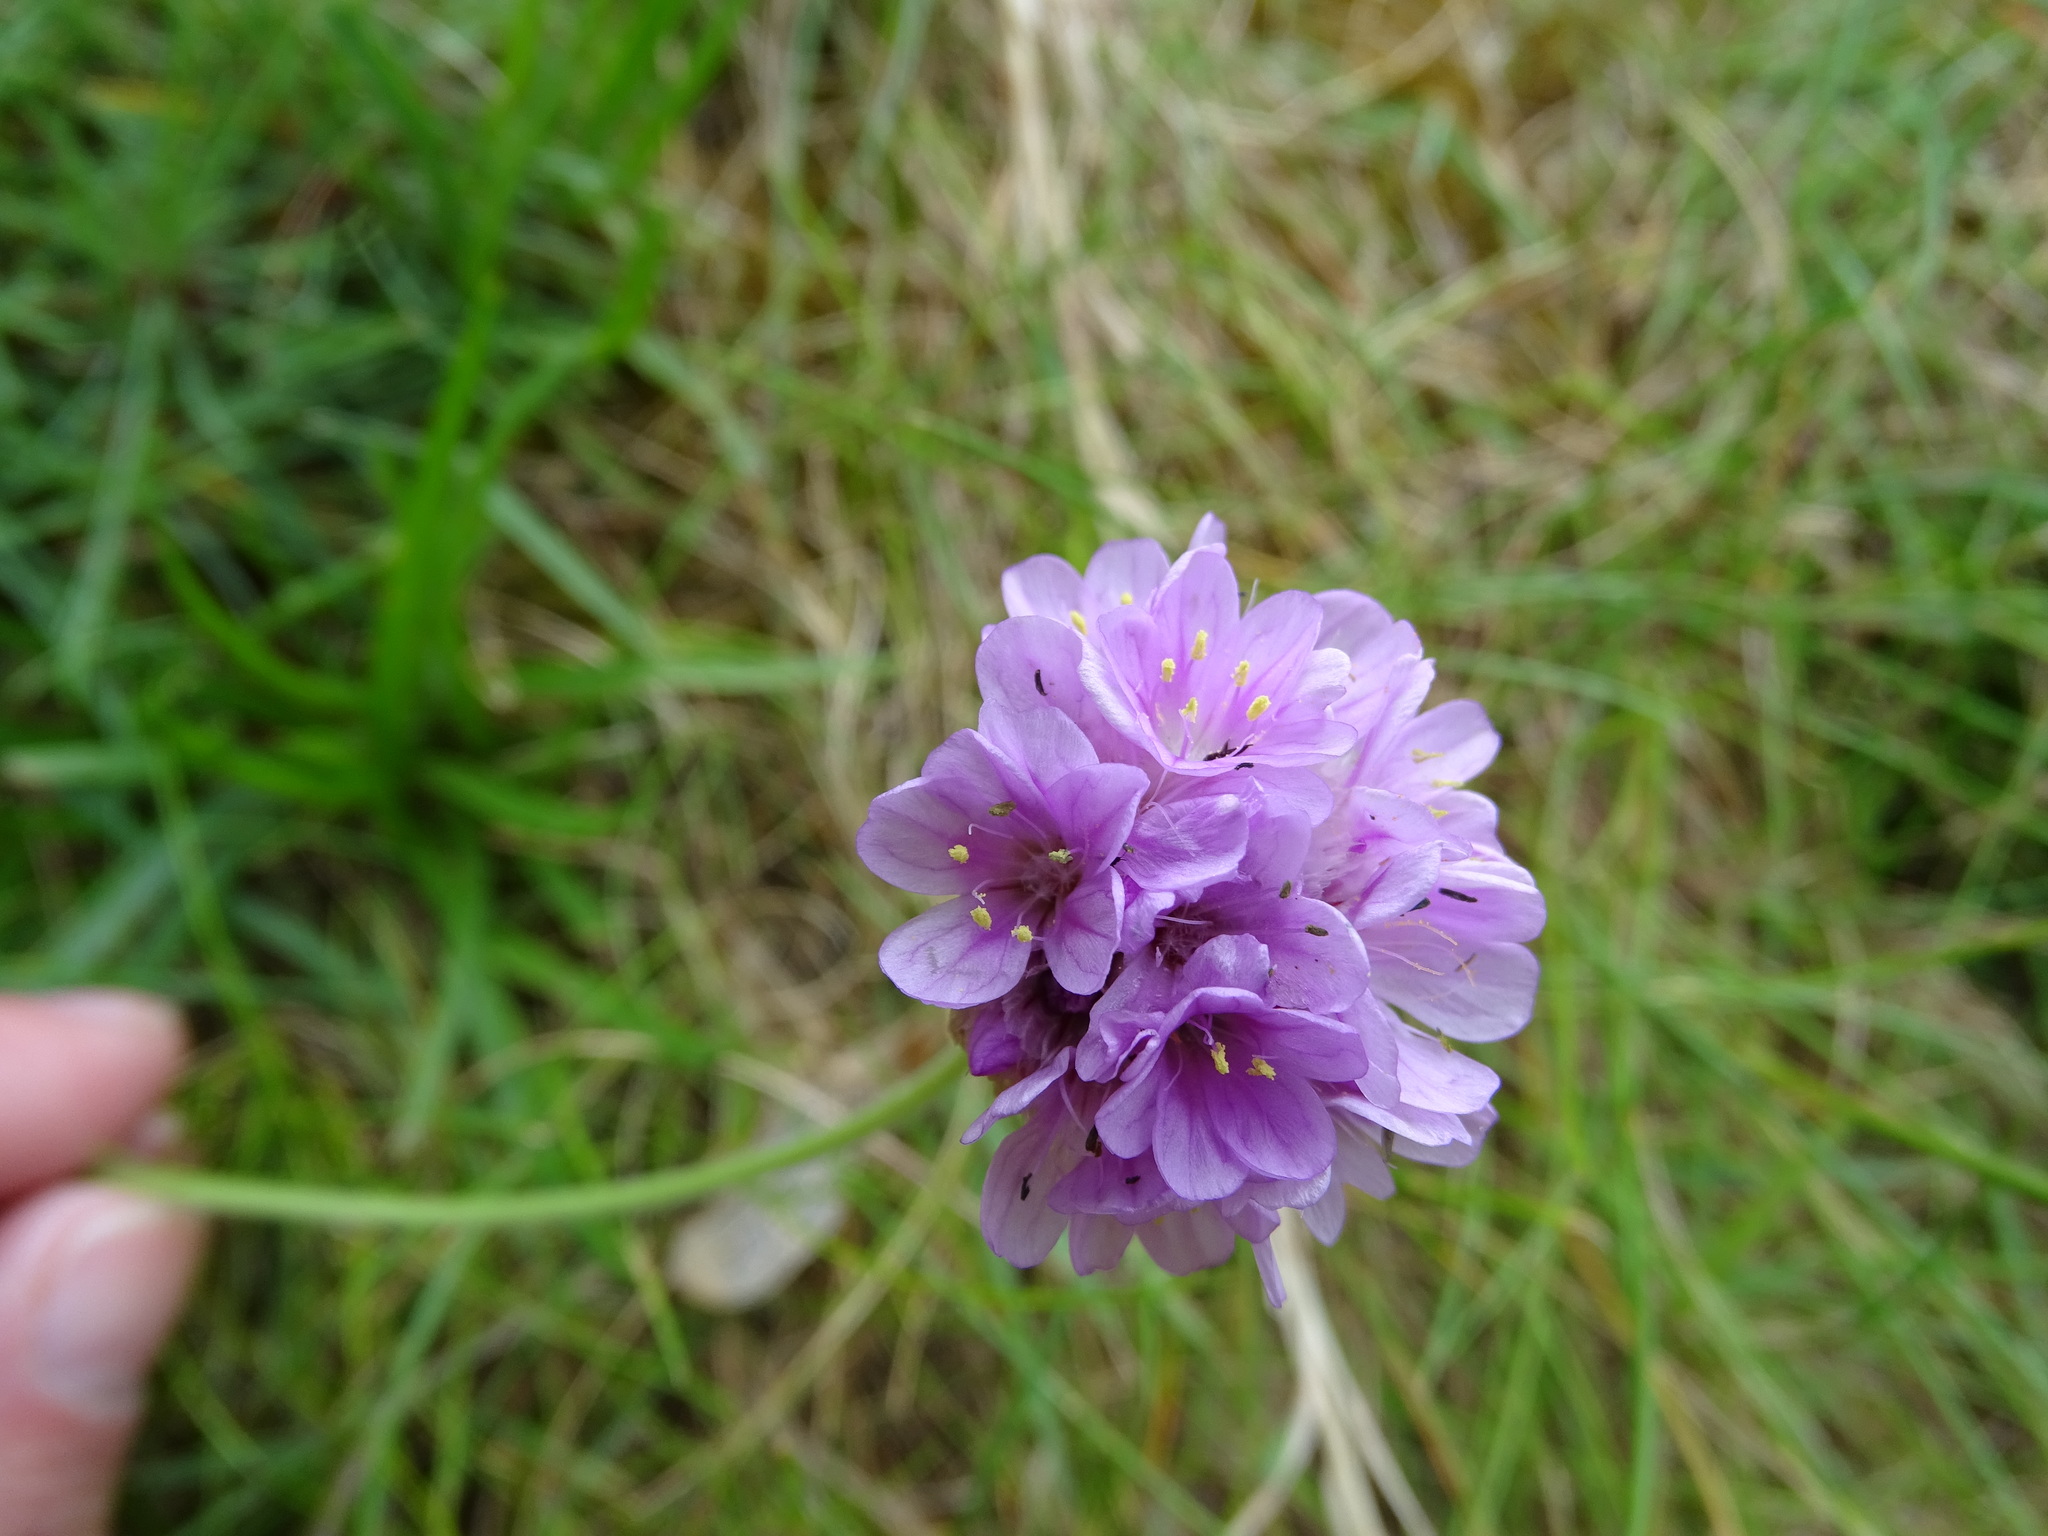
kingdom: Plantae
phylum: Tracheophyta
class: Magnoliopsida
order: Caryophyllales
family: Plumbaginaceae
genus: Armeria
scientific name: Armeria maritima
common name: Thrift
